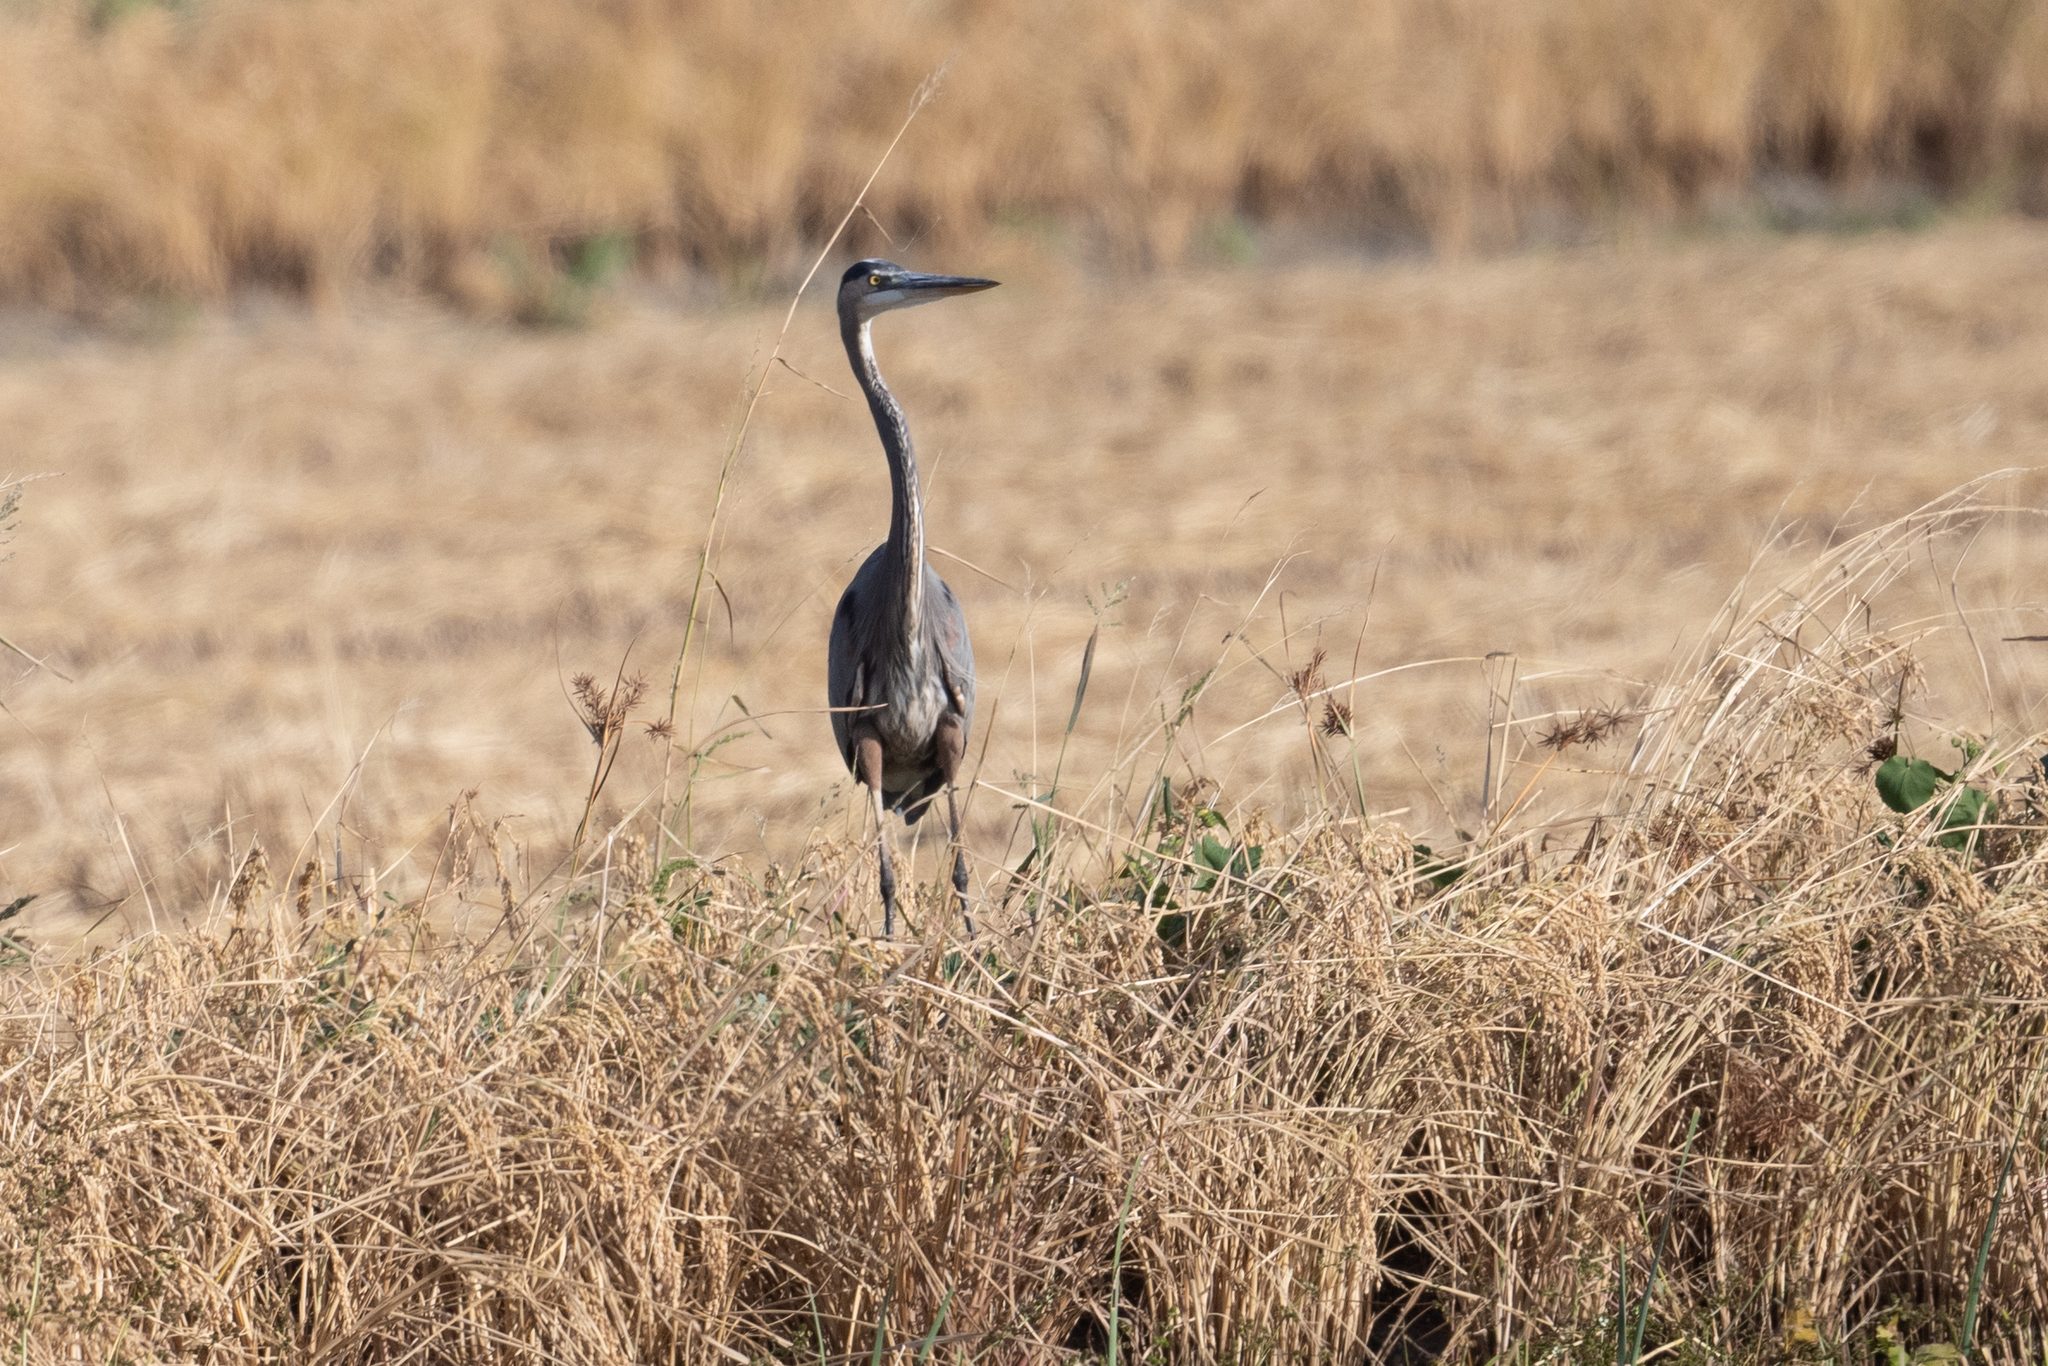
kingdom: Animalia
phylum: Chordata
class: Aves
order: Pelecaniformes
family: Ardeidae
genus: Ardea
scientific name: Ardea herodias
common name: Great blue heron
